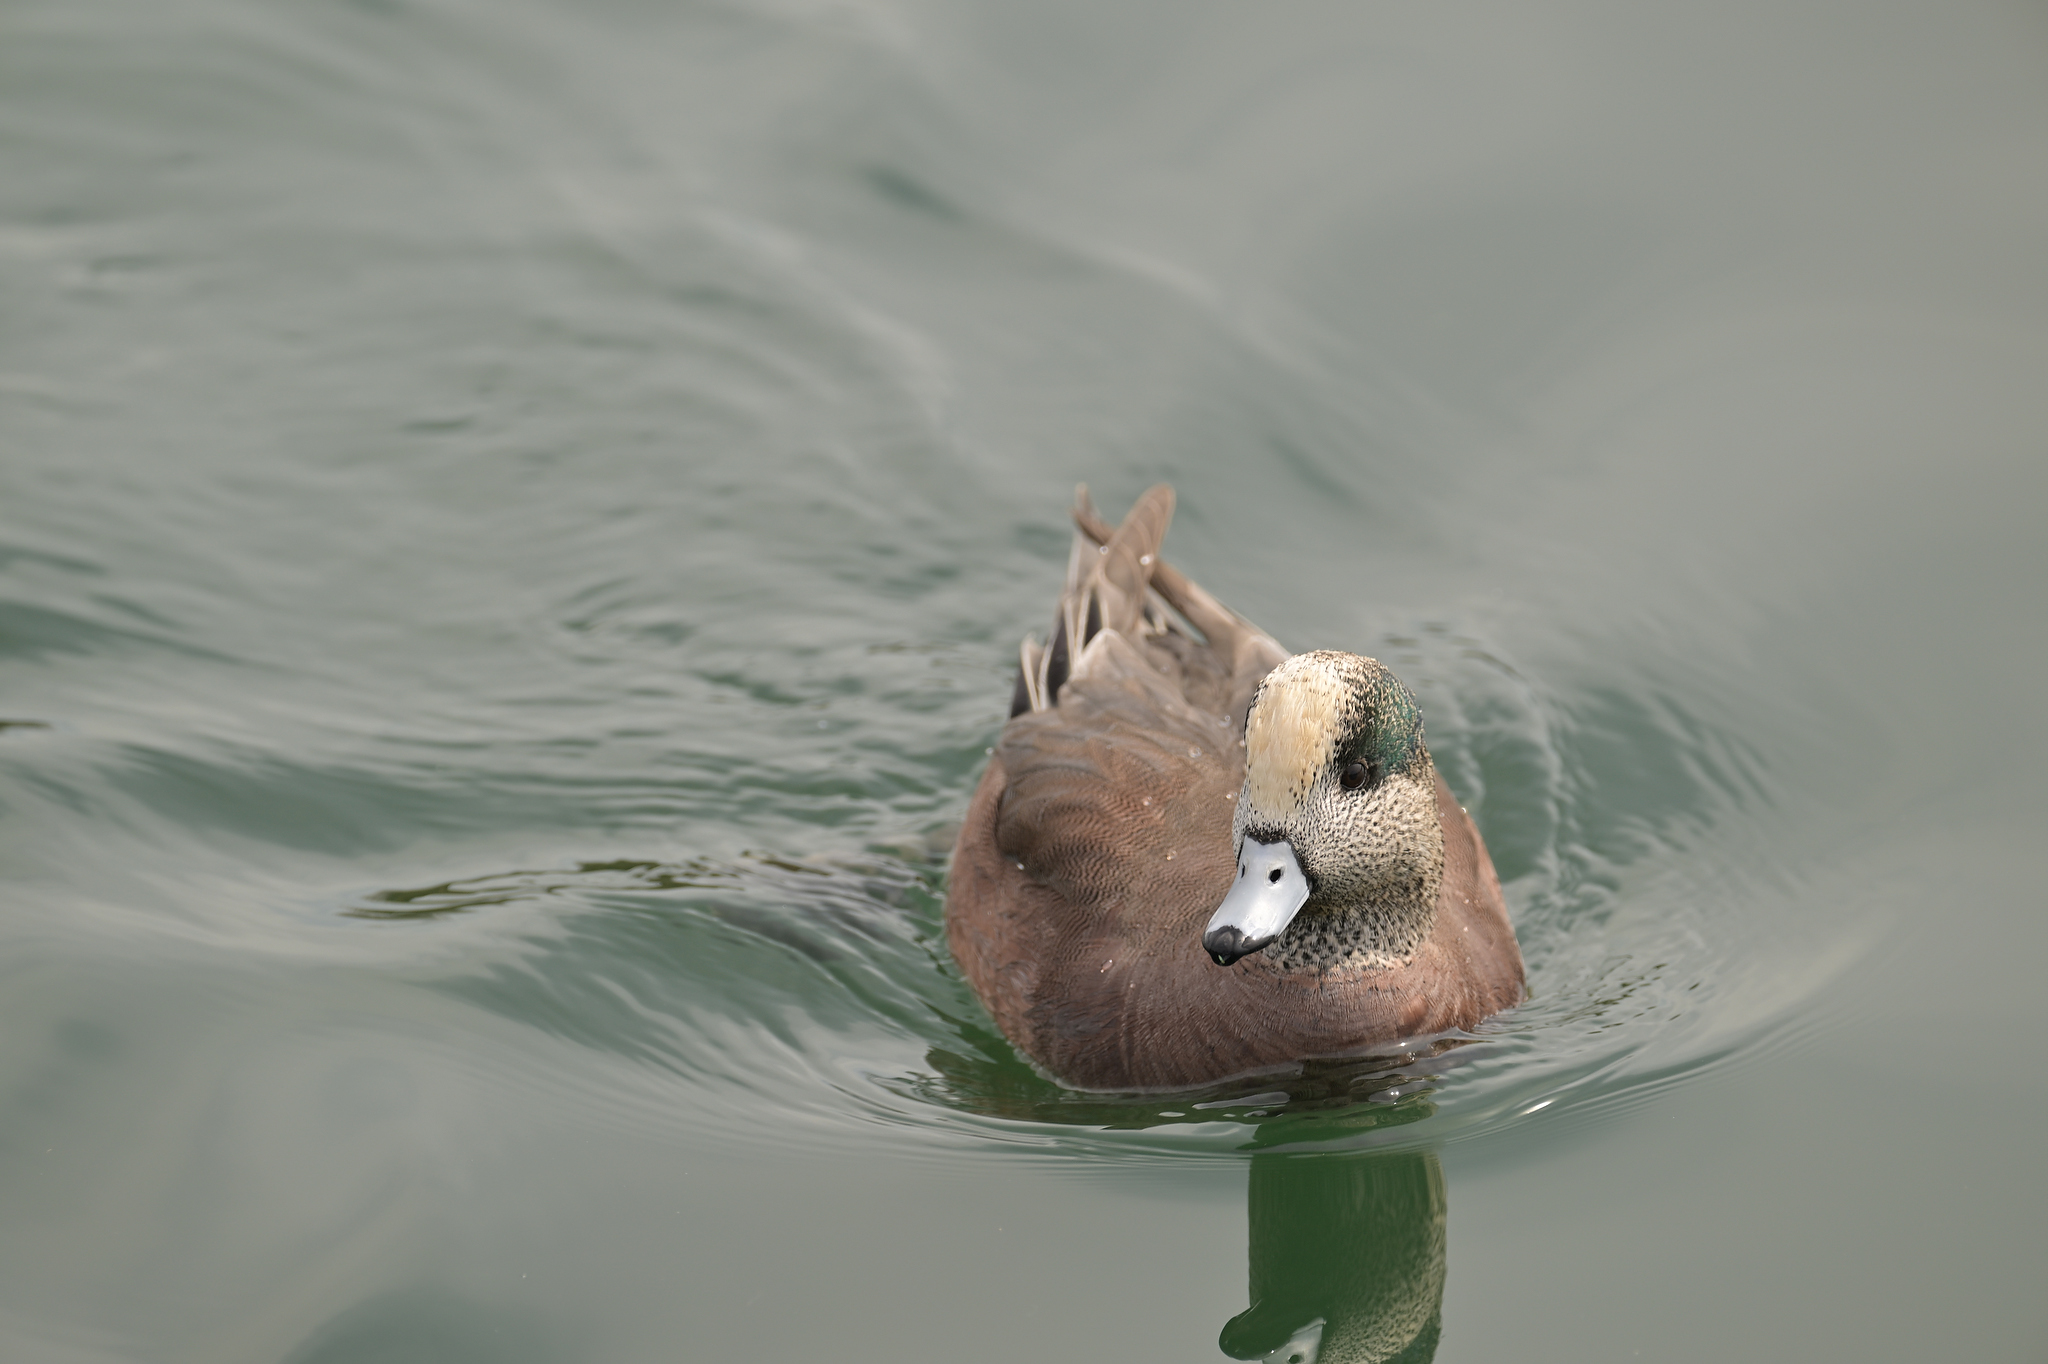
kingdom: Animalia
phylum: Chordata
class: Aves
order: Anseriformes
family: Anatidae
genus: Mareca
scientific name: Mareca americana
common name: American wigeon
